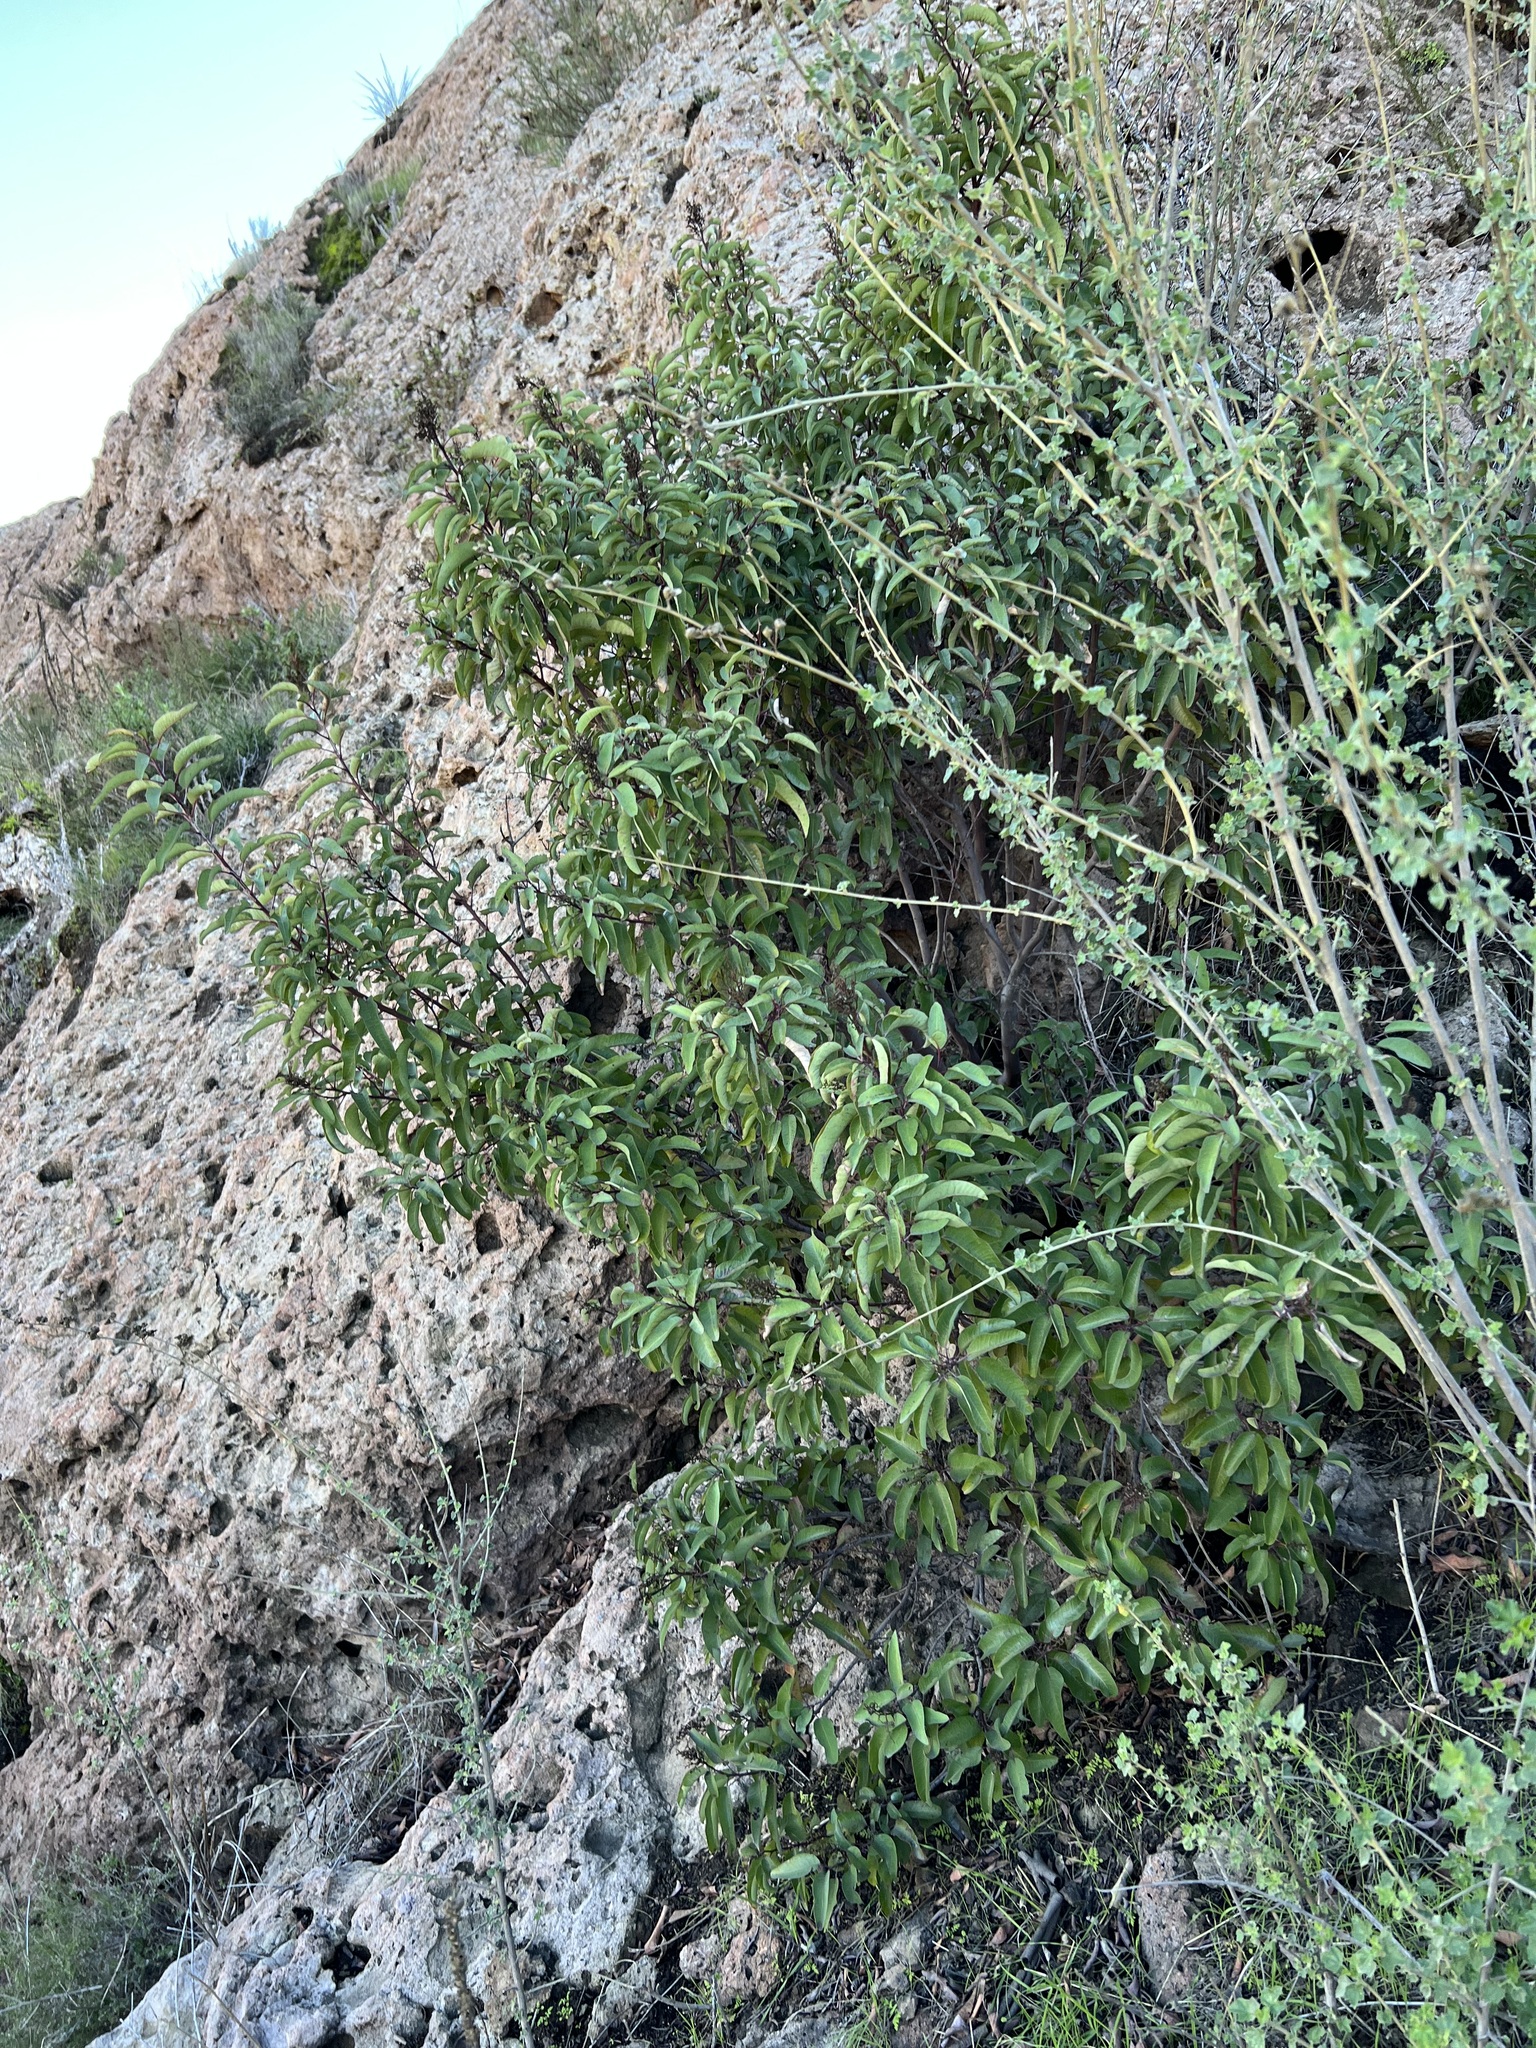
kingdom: Plantae
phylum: Tracheophyta
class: Magnoliopsida
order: Sapindales
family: Anacardiaceae
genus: Malosma
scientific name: Malosma laurina
